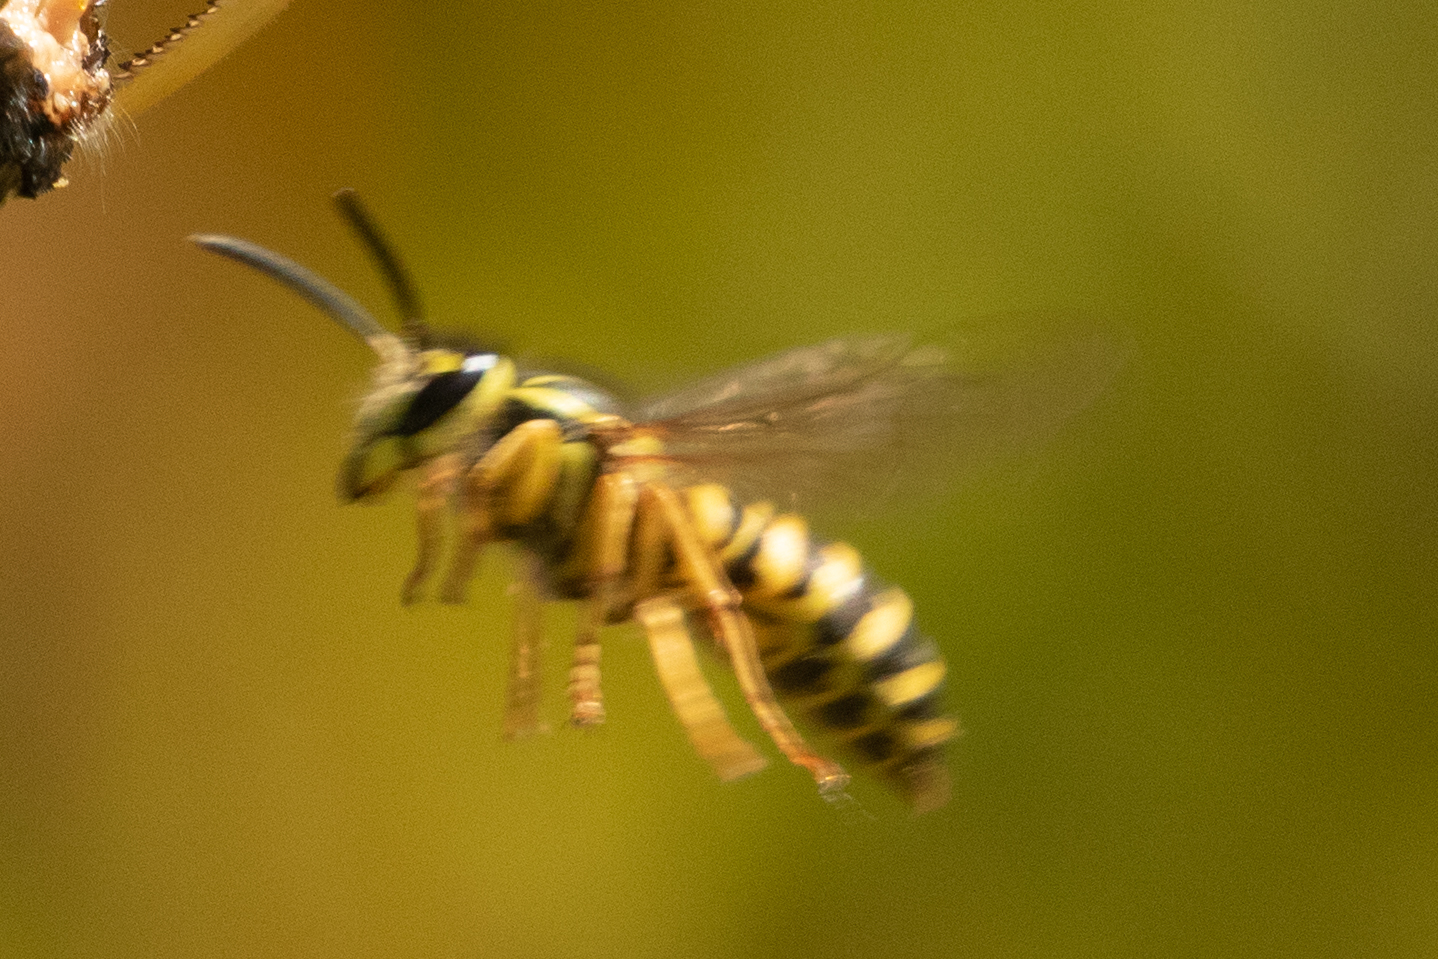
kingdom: Animalia
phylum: Arthropoda
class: Insecta
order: Hymenoptera
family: Vespidae
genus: Vespula
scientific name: Vespula squamosa
